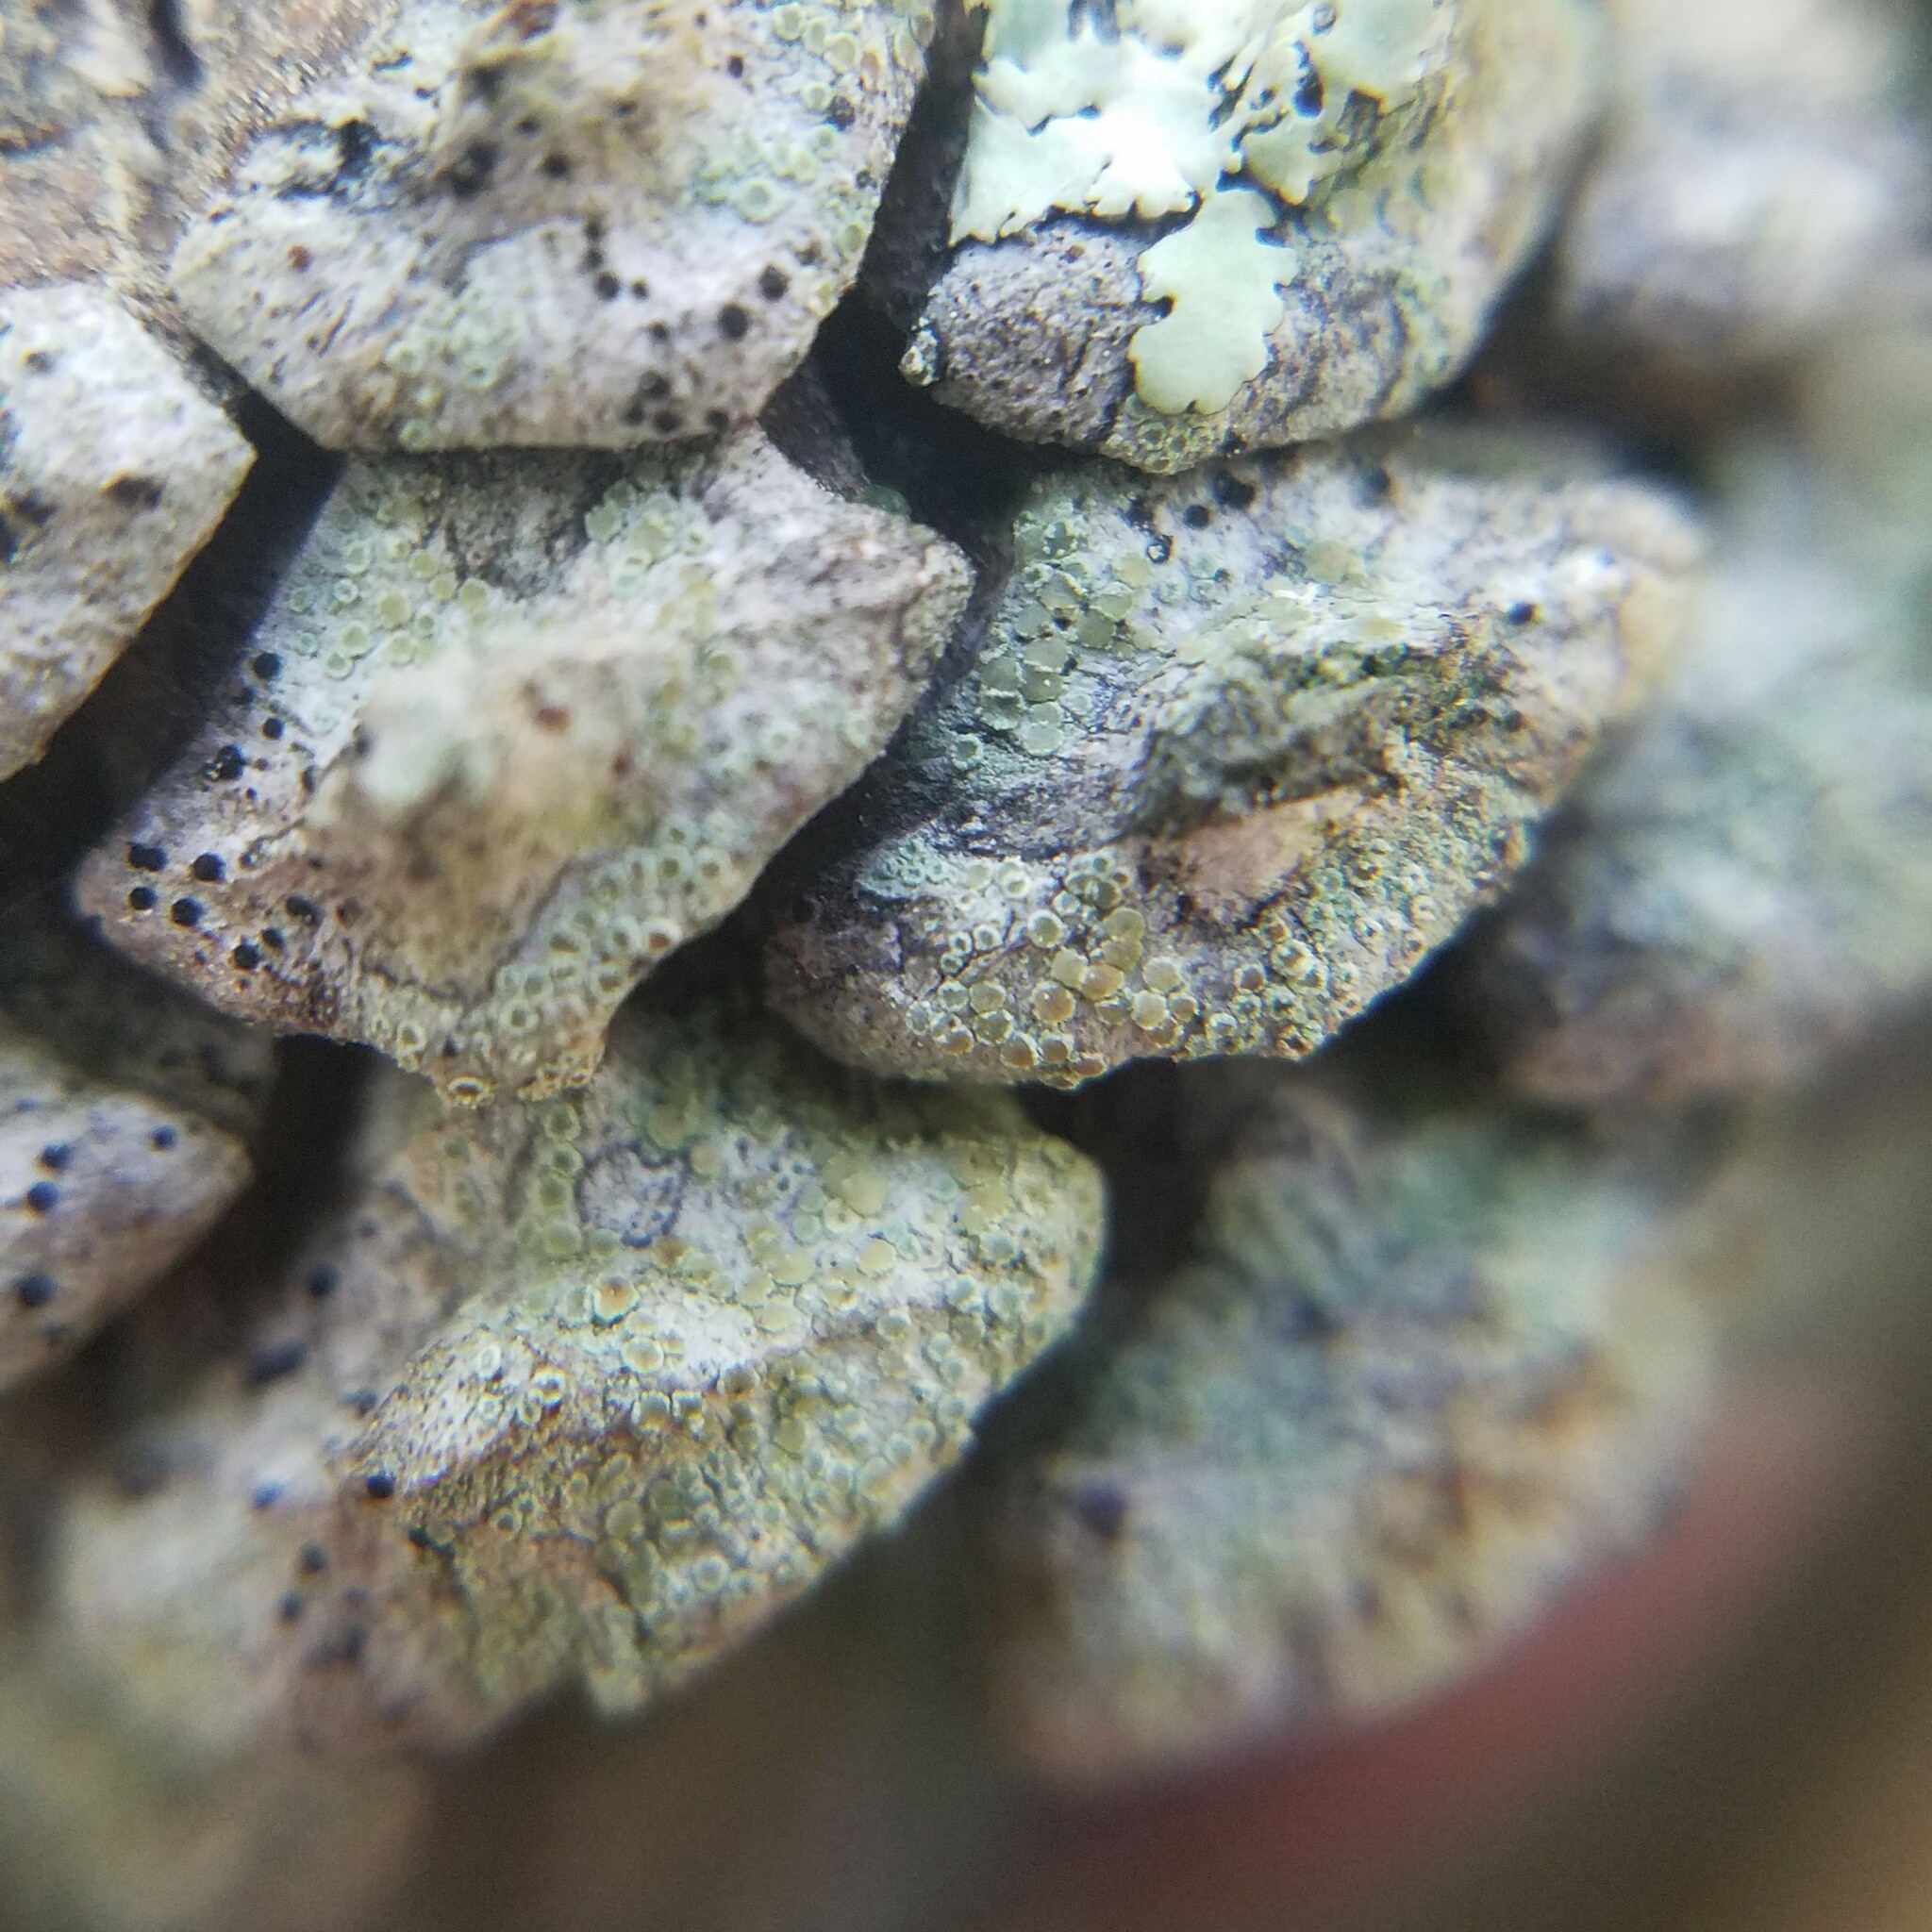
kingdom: Fungi
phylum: Ascomycota
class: Lecanoromycetes
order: Lecanorales
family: Lecanoraceae
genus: Lecanora
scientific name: Lecanora strobilina
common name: Mealy rim-lichen
